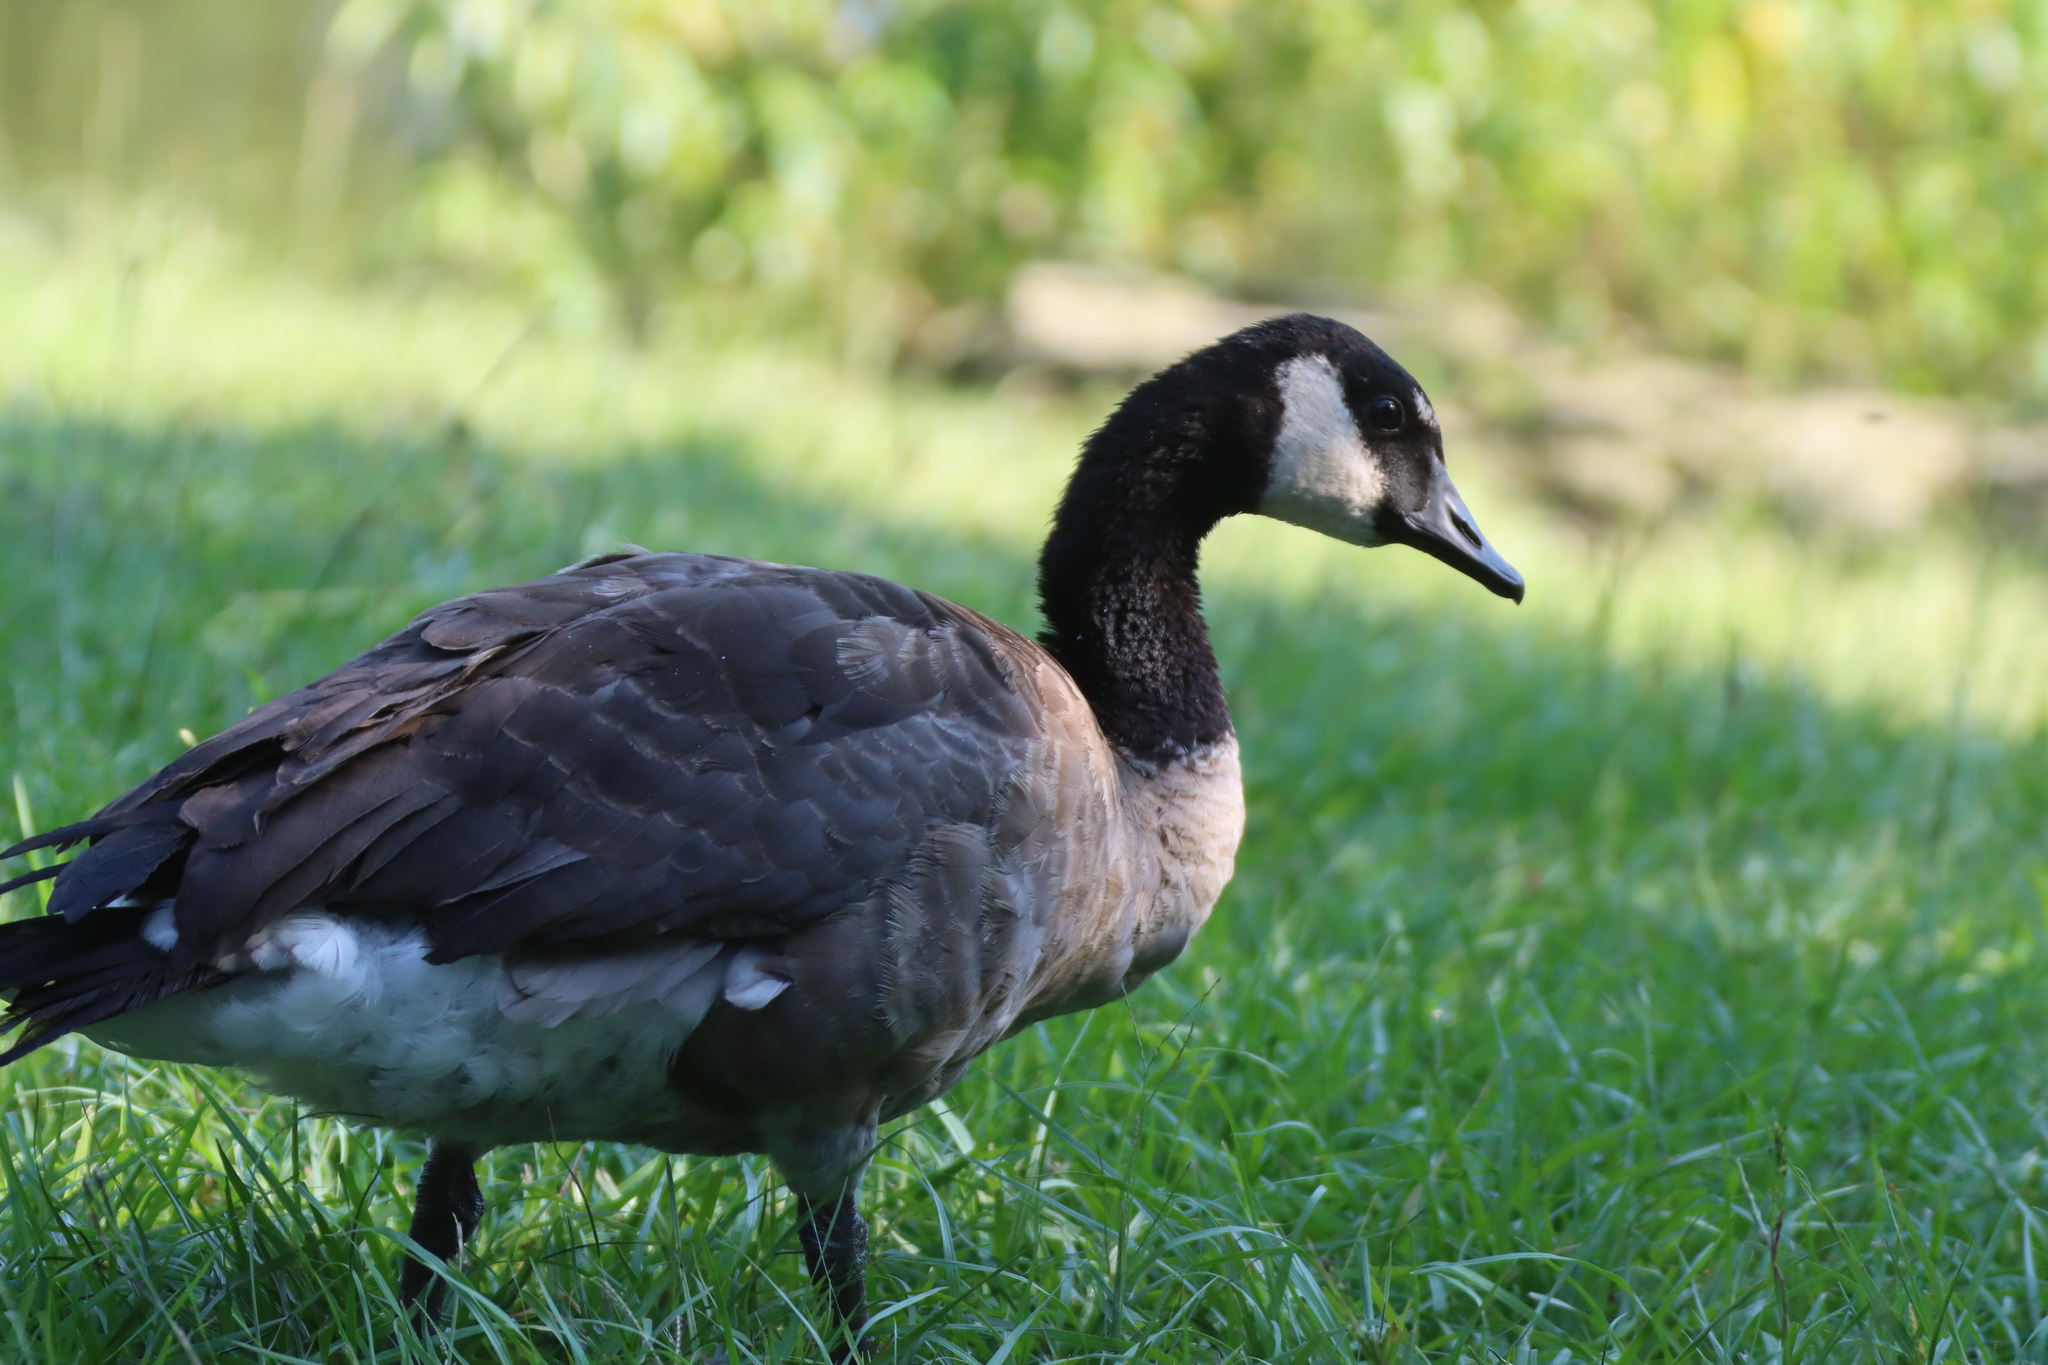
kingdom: Animalia
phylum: Chordata
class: Aves
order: Anseriformes
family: Anatidae
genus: Branta
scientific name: Branta canadensis
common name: Canada goose
